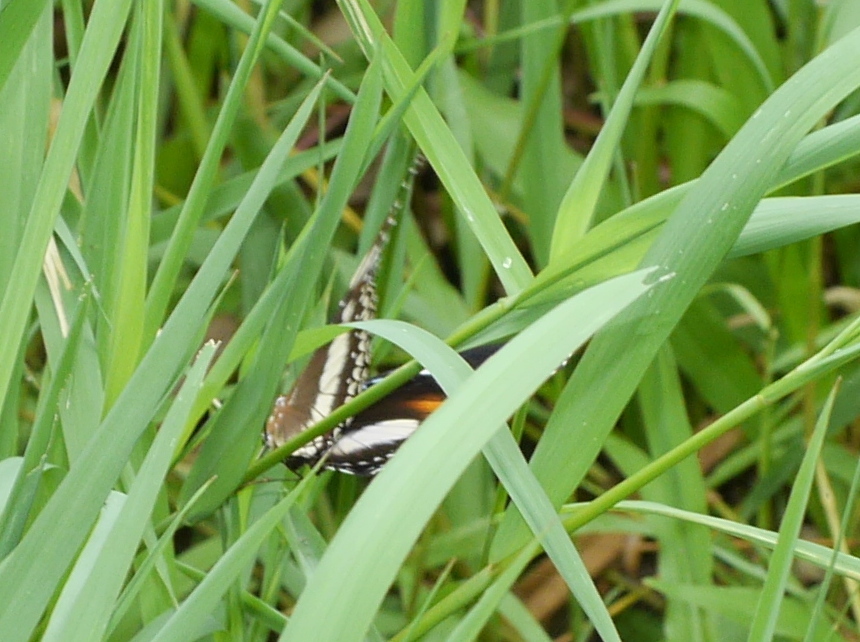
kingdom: Animalia
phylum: Arthropoda
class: Insecta
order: Lepidoptera
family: Nymphalidae
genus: Hypolimnas
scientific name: Hypolimnas bolina
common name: Great eggfly
